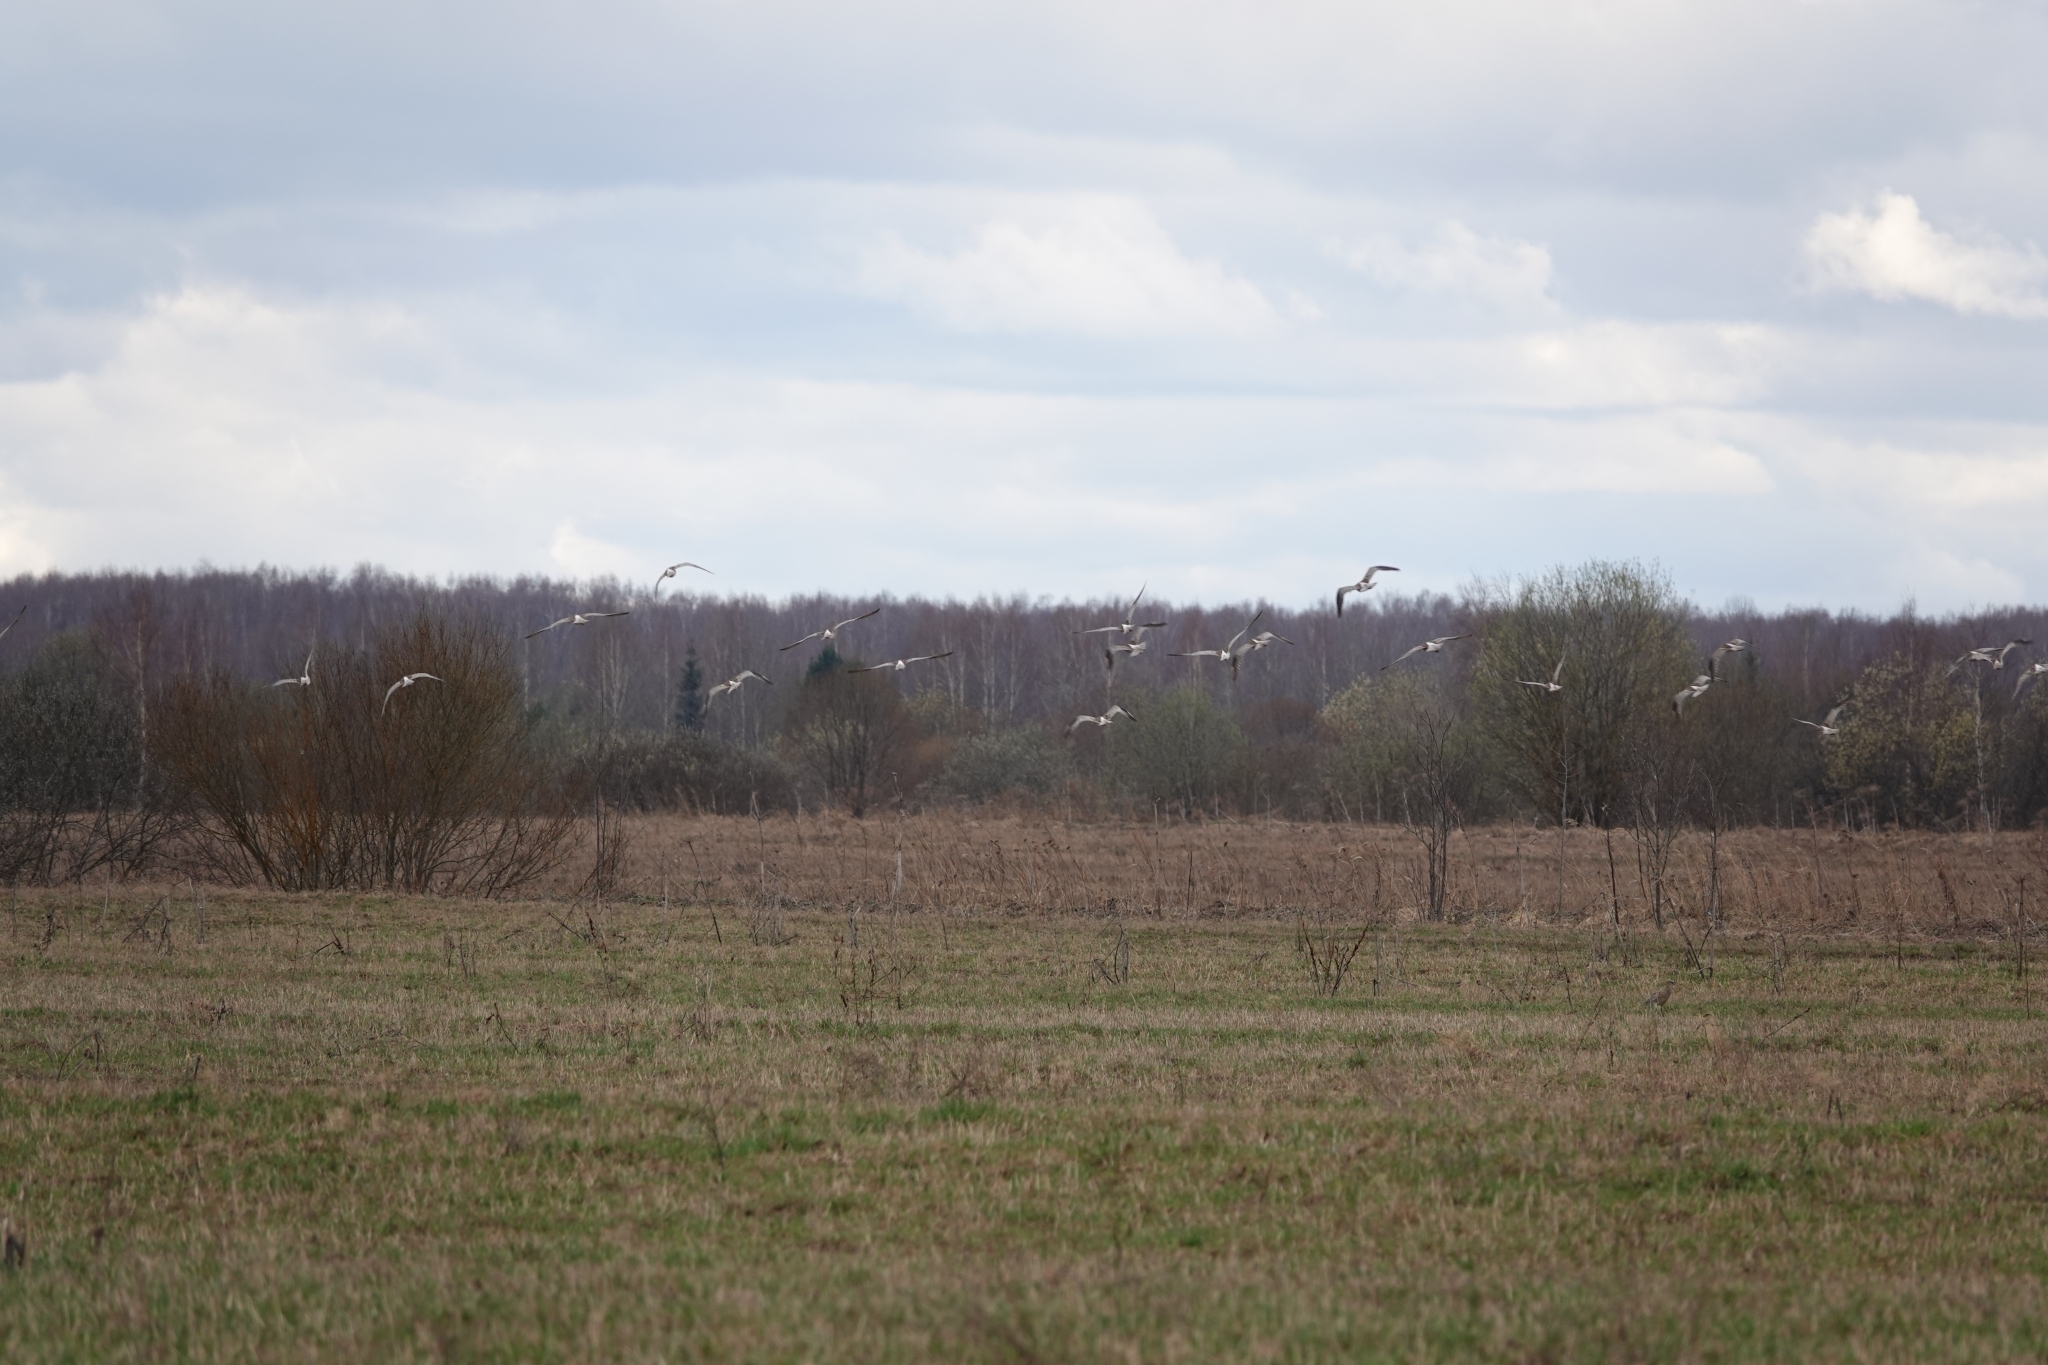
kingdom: Animalia
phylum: Chordata
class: Aves
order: Charadriiformes
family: Scolopacidae
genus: Numenius
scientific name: Numenius arquata
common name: Eurasian curlew
